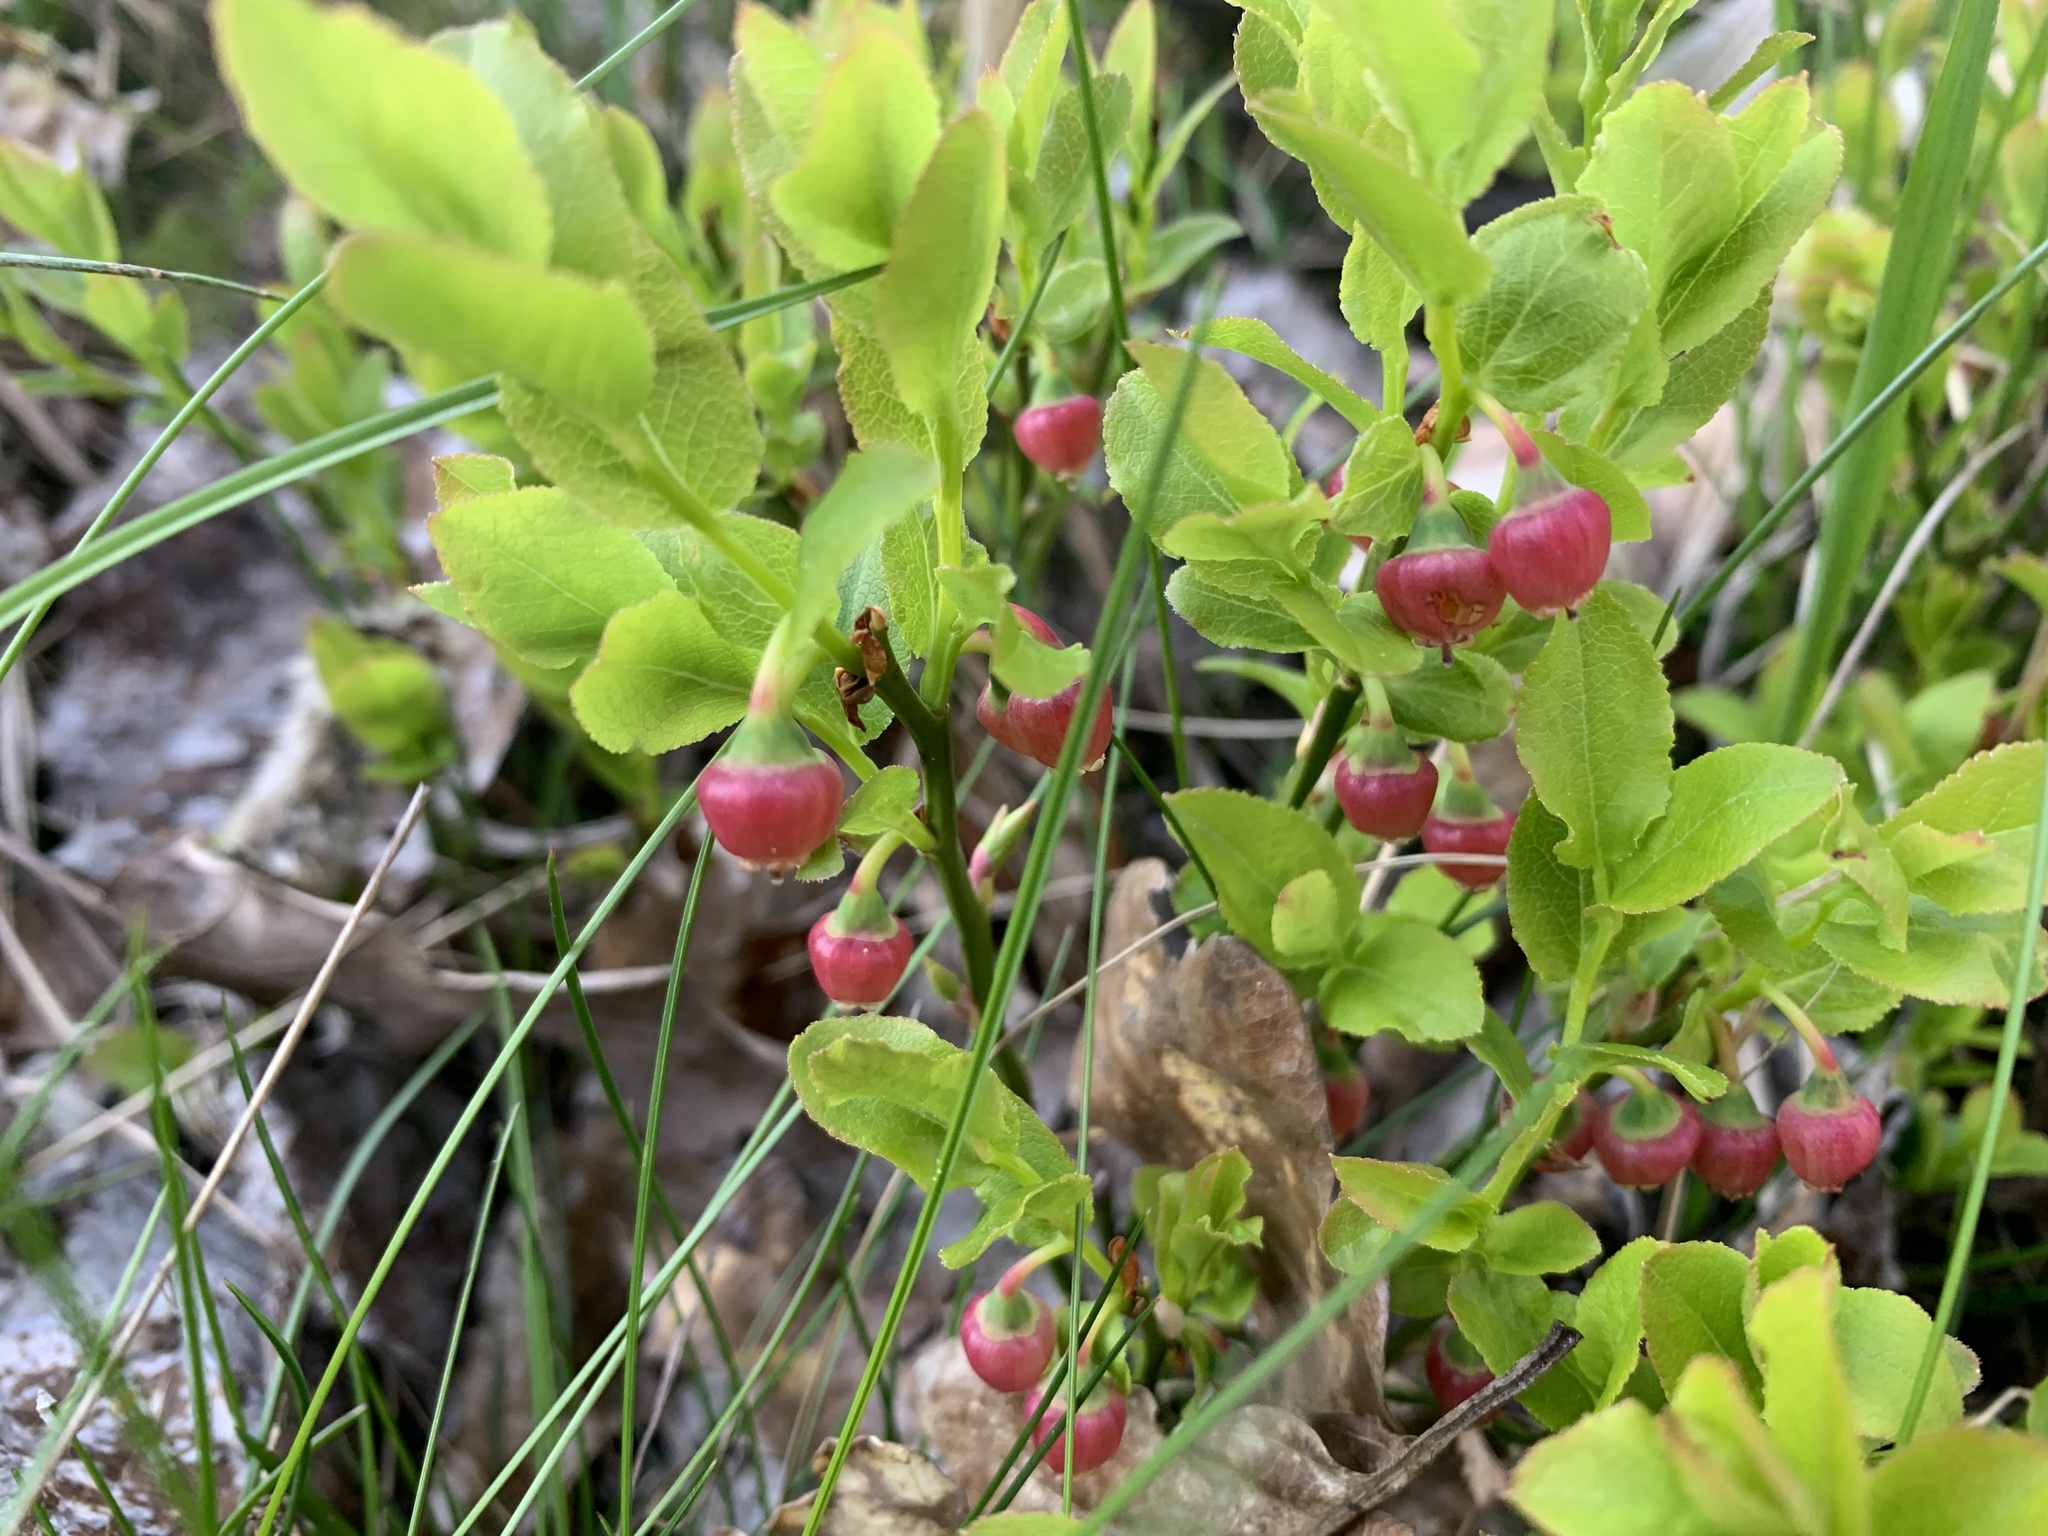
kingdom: Plantae
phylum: Tracheophyta
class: Magnoliopsida
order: Ericales
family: Ericaceae
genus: Vaccinium
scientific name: Vaccinium myrtillus
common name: Bilberry
